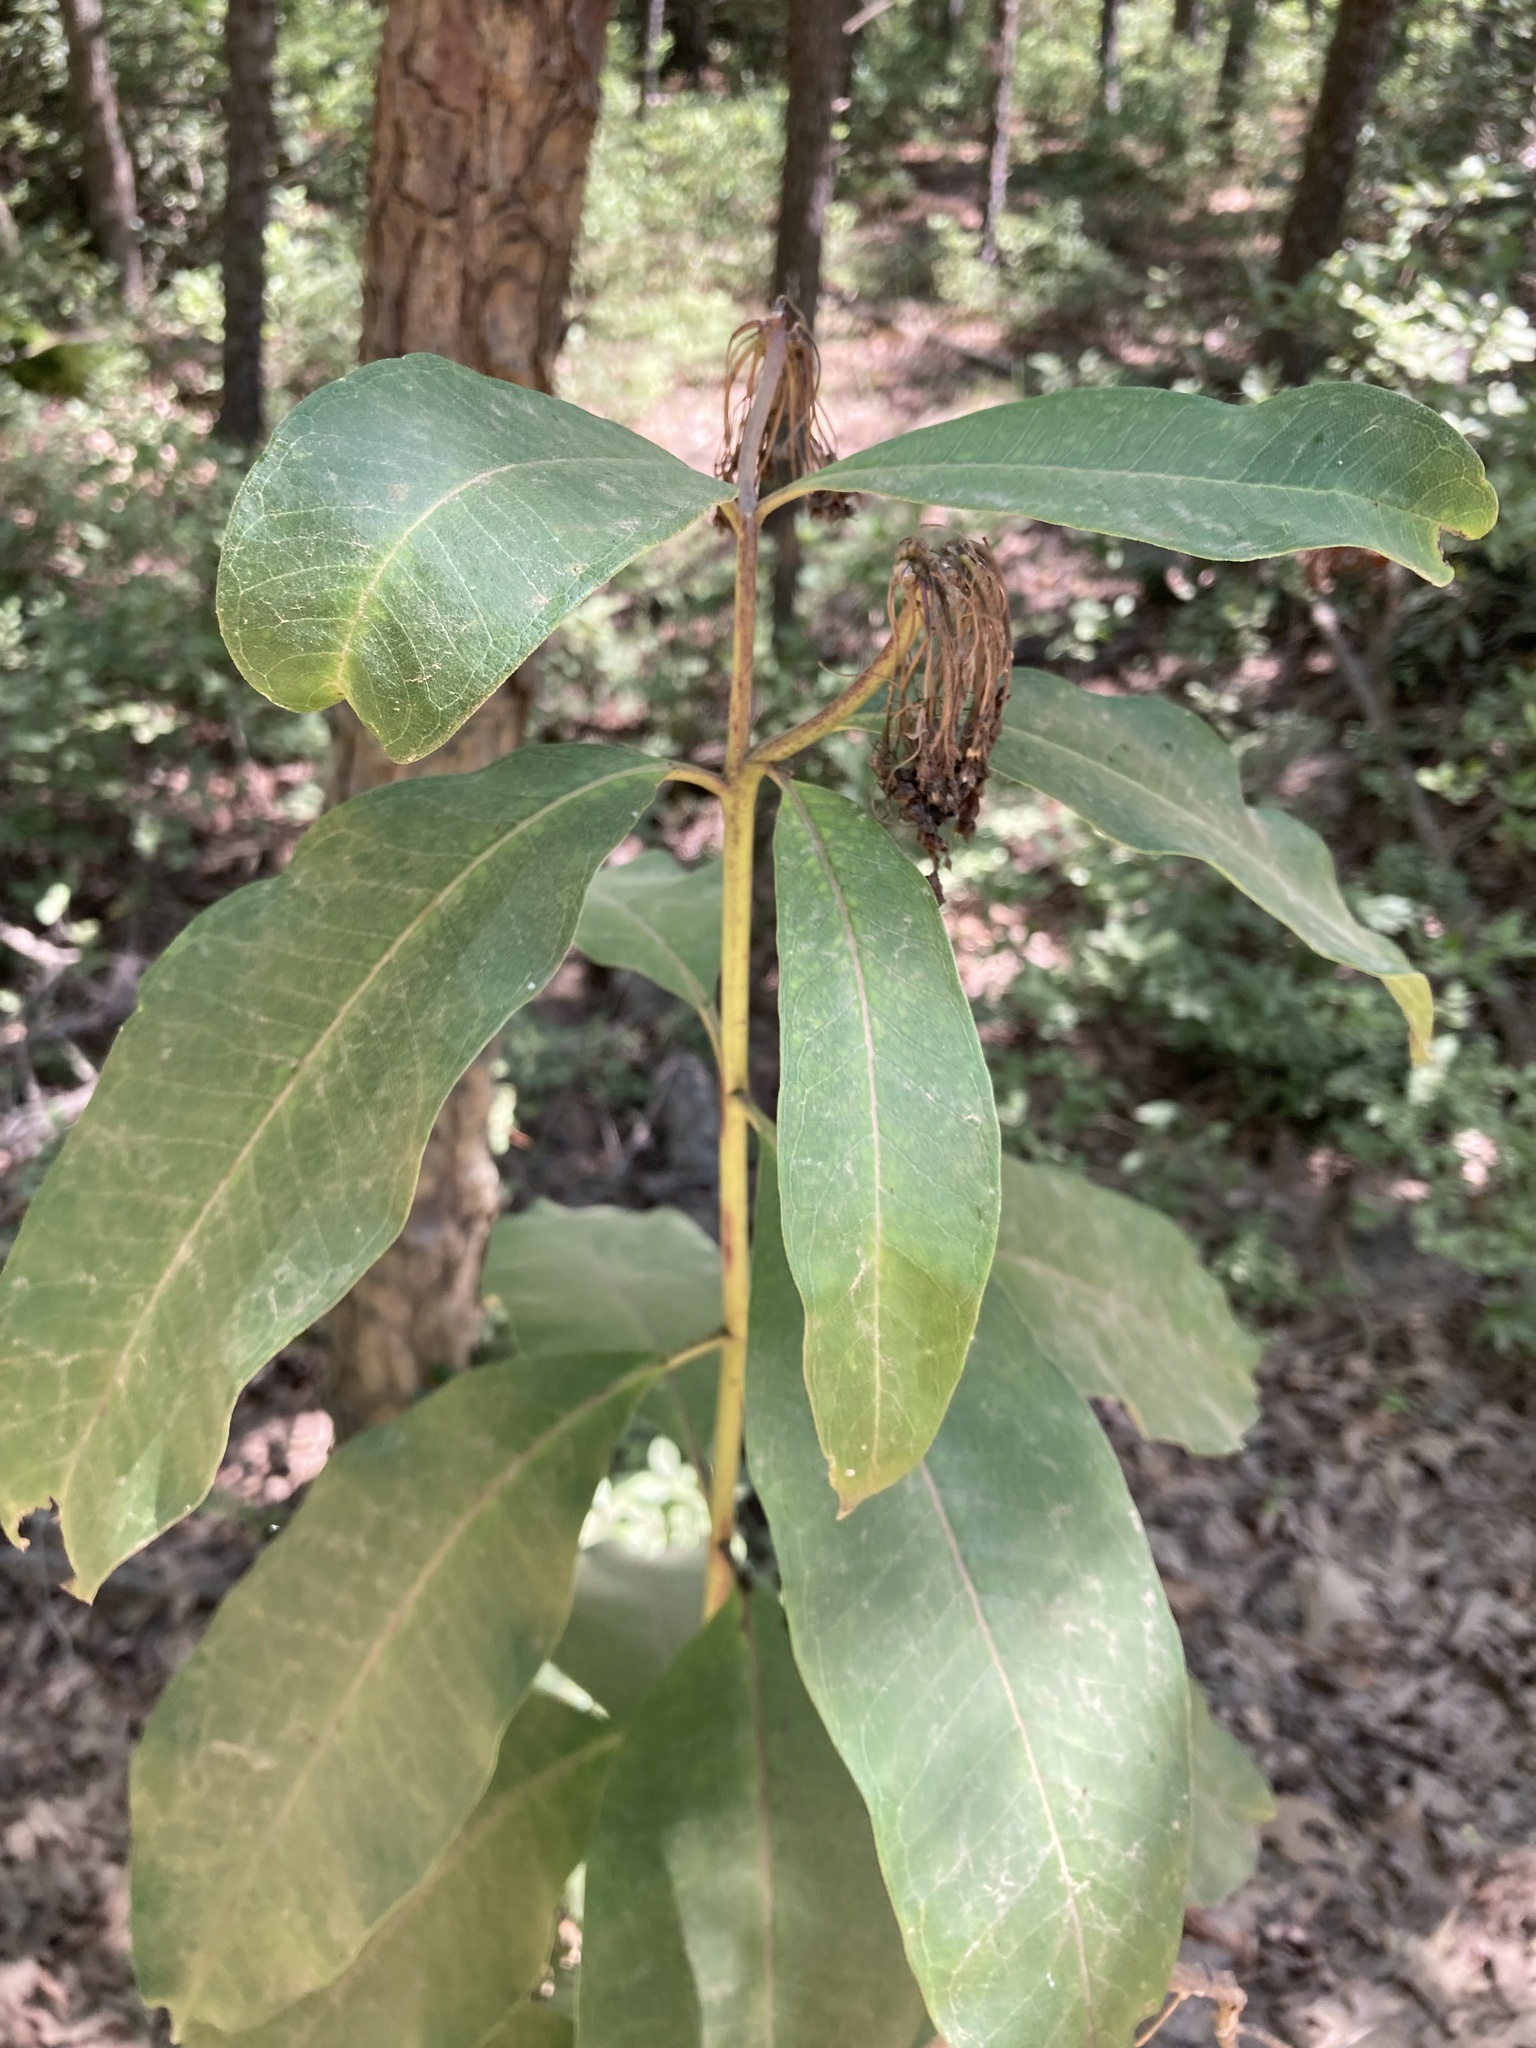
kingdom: Plantae
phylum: Tracheophyta
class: Magnoliopsida
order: Gentianales
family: Apocynaceae
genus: Asclepias
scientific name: Asclepias syriaca
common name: Common milkweed
